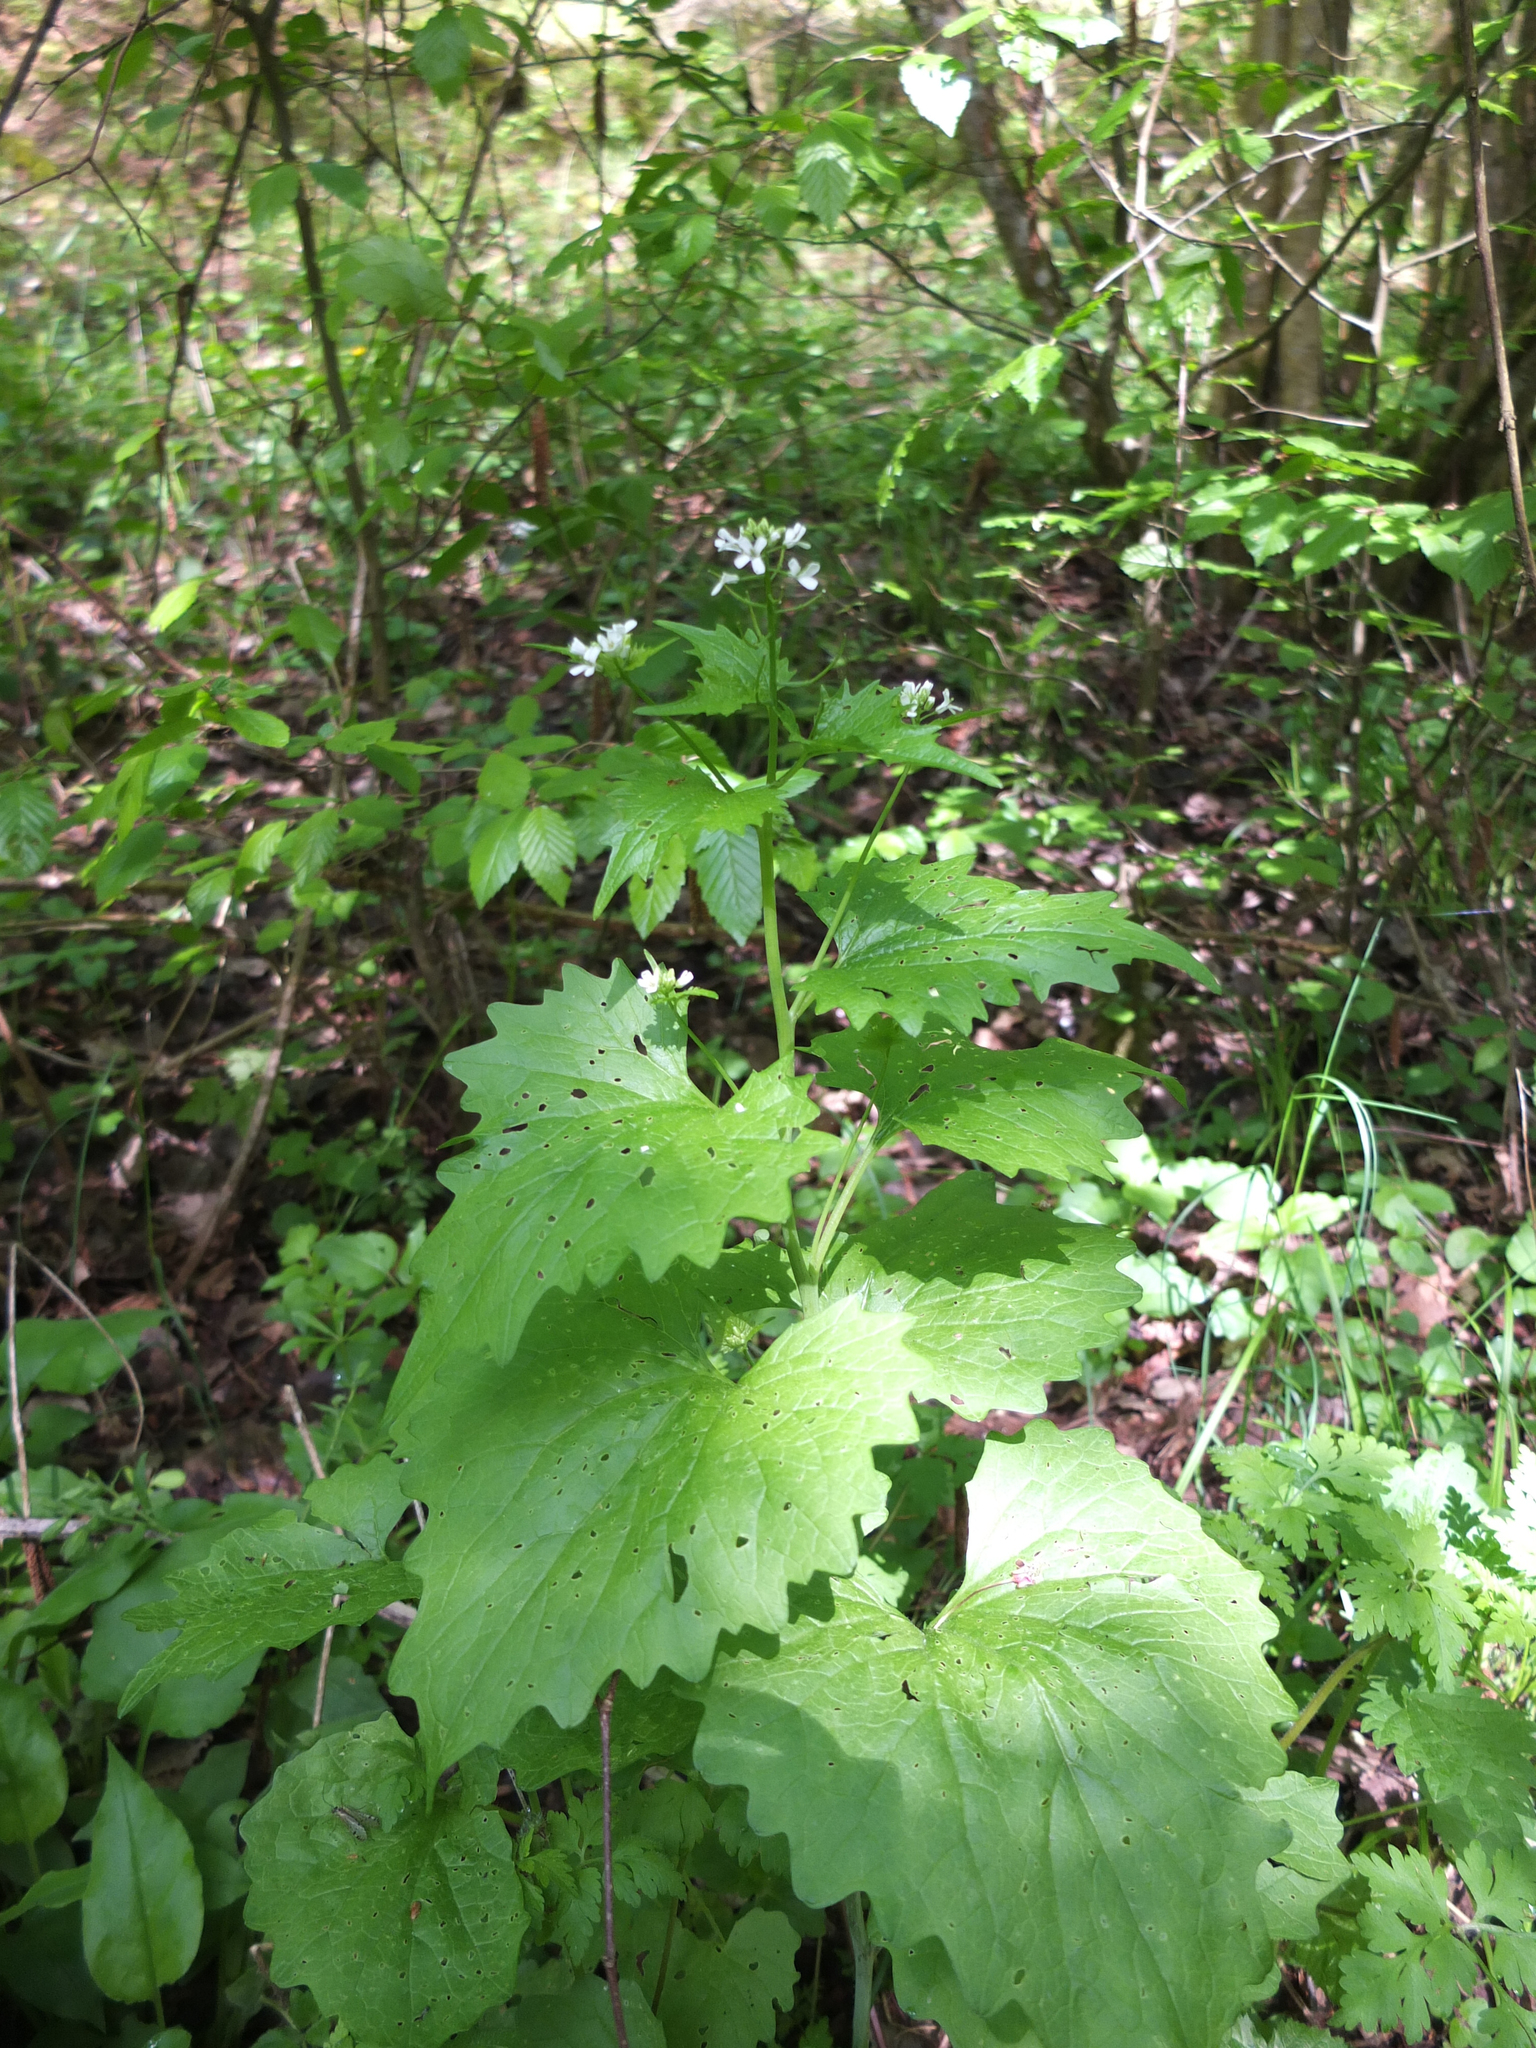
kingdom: Plantae
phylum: Tracheophyta
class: Magnoliopsida
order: Brassicales
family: Brassicaceae
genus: Alliaria
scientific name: Alliaria petiolata
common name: Garlic mustard
